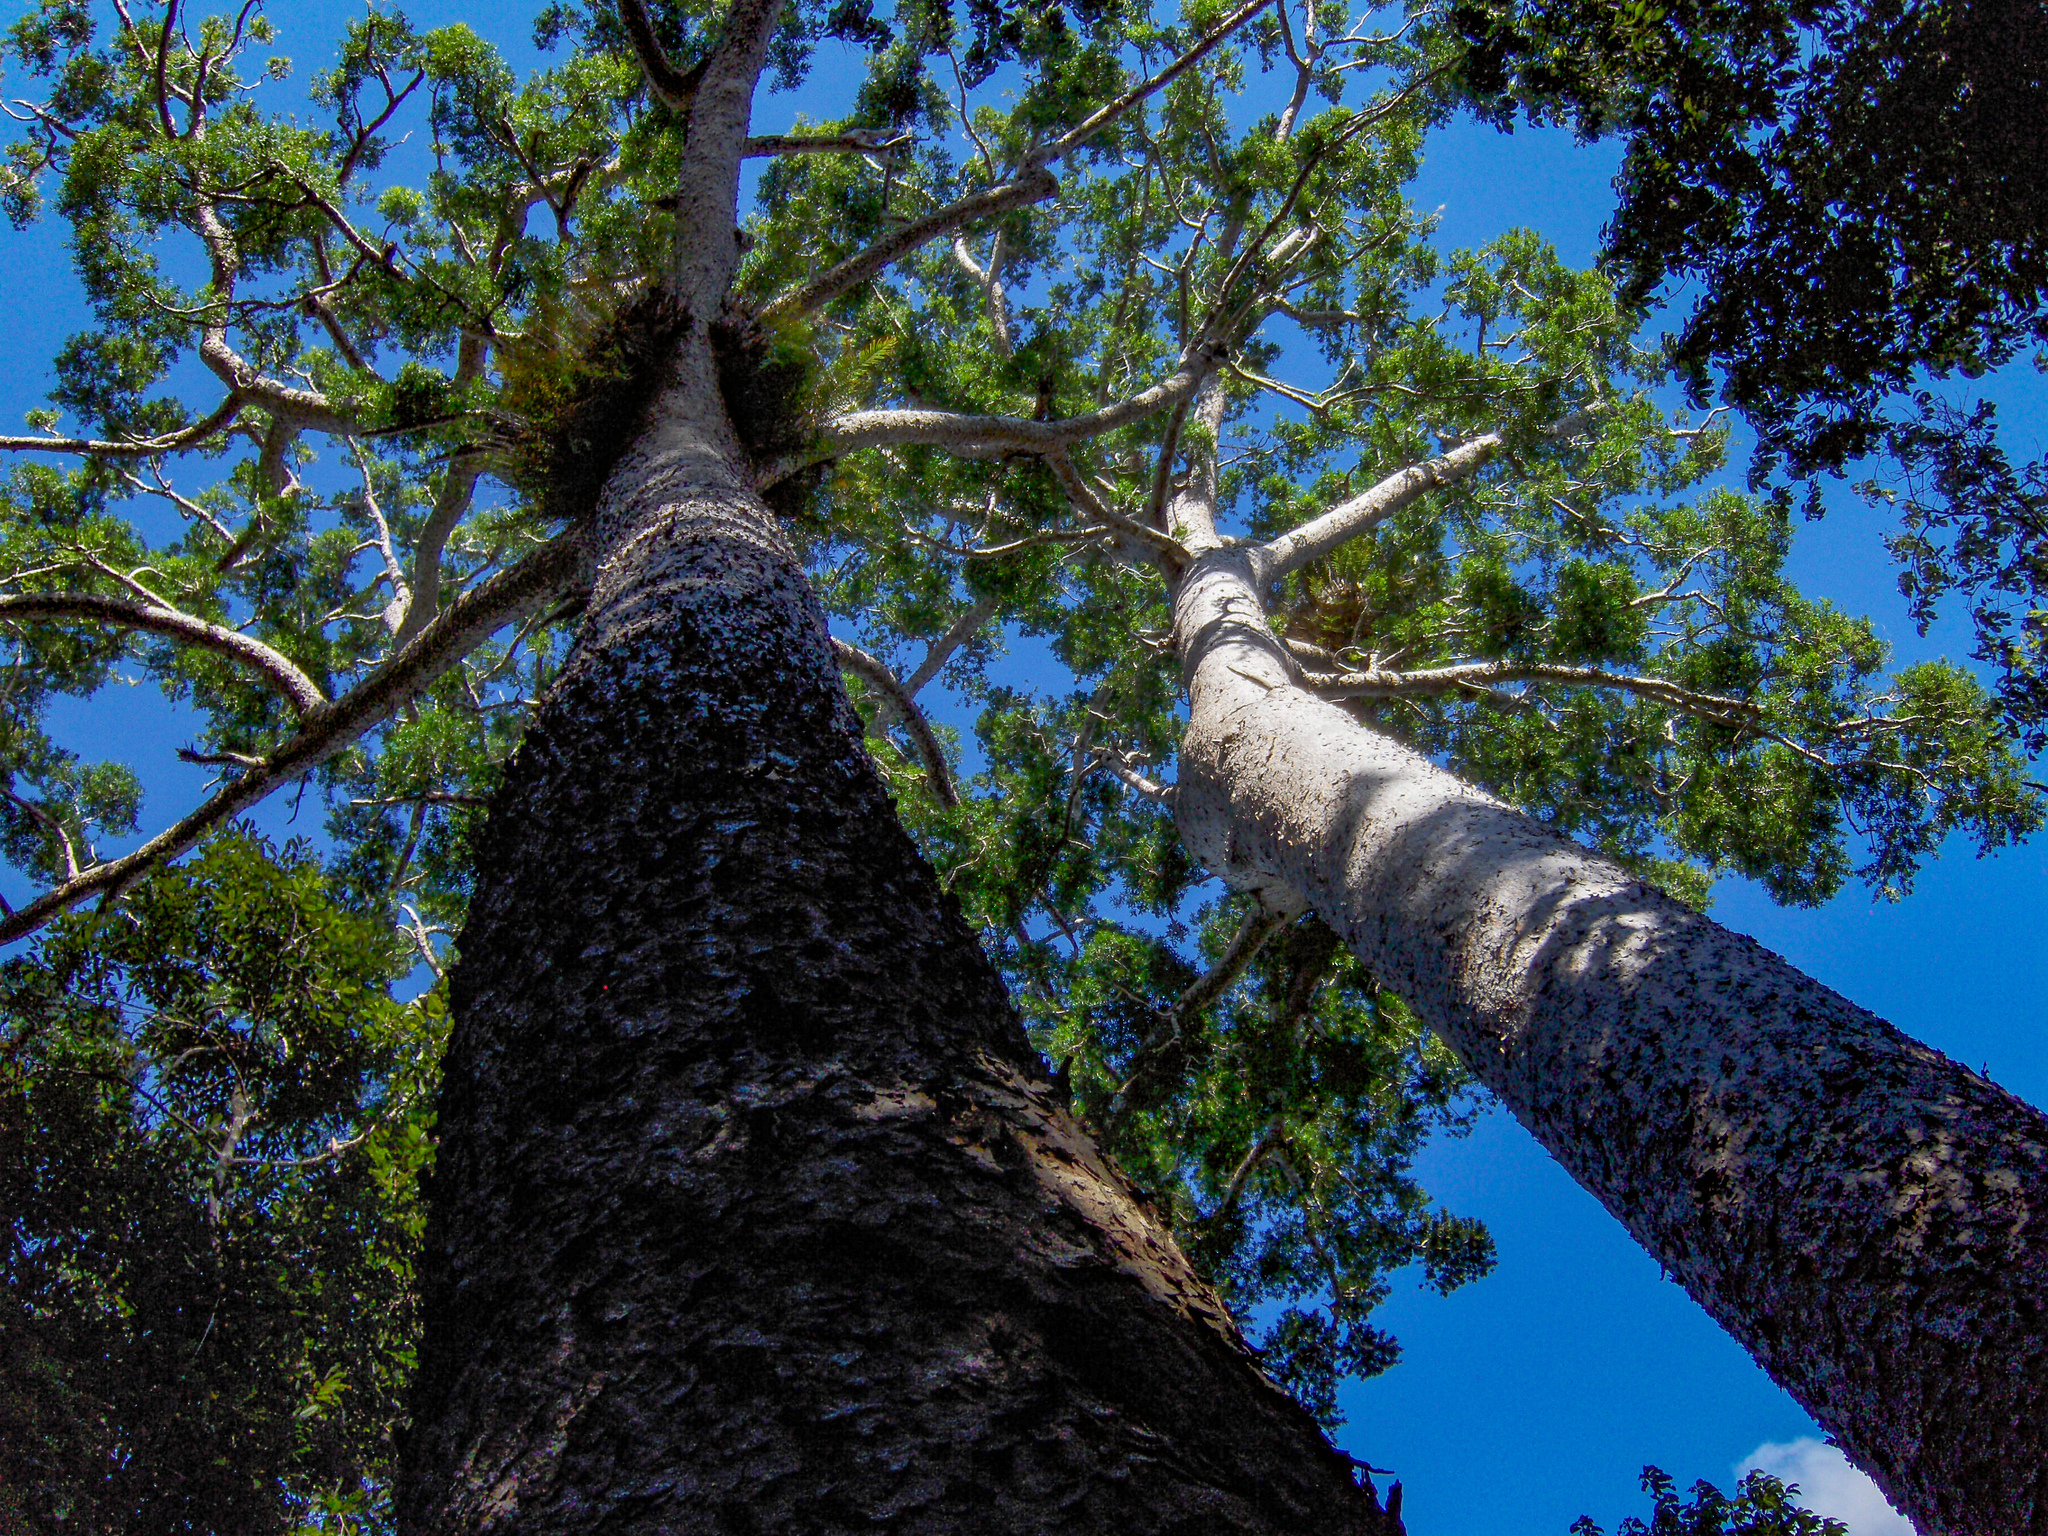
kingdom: Plantae
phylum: Tracheophyta
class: Pinopsida
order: Pinales
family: Araucariaceae
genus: Agathis
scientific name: Agathis microstachya
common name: Bull kauri
